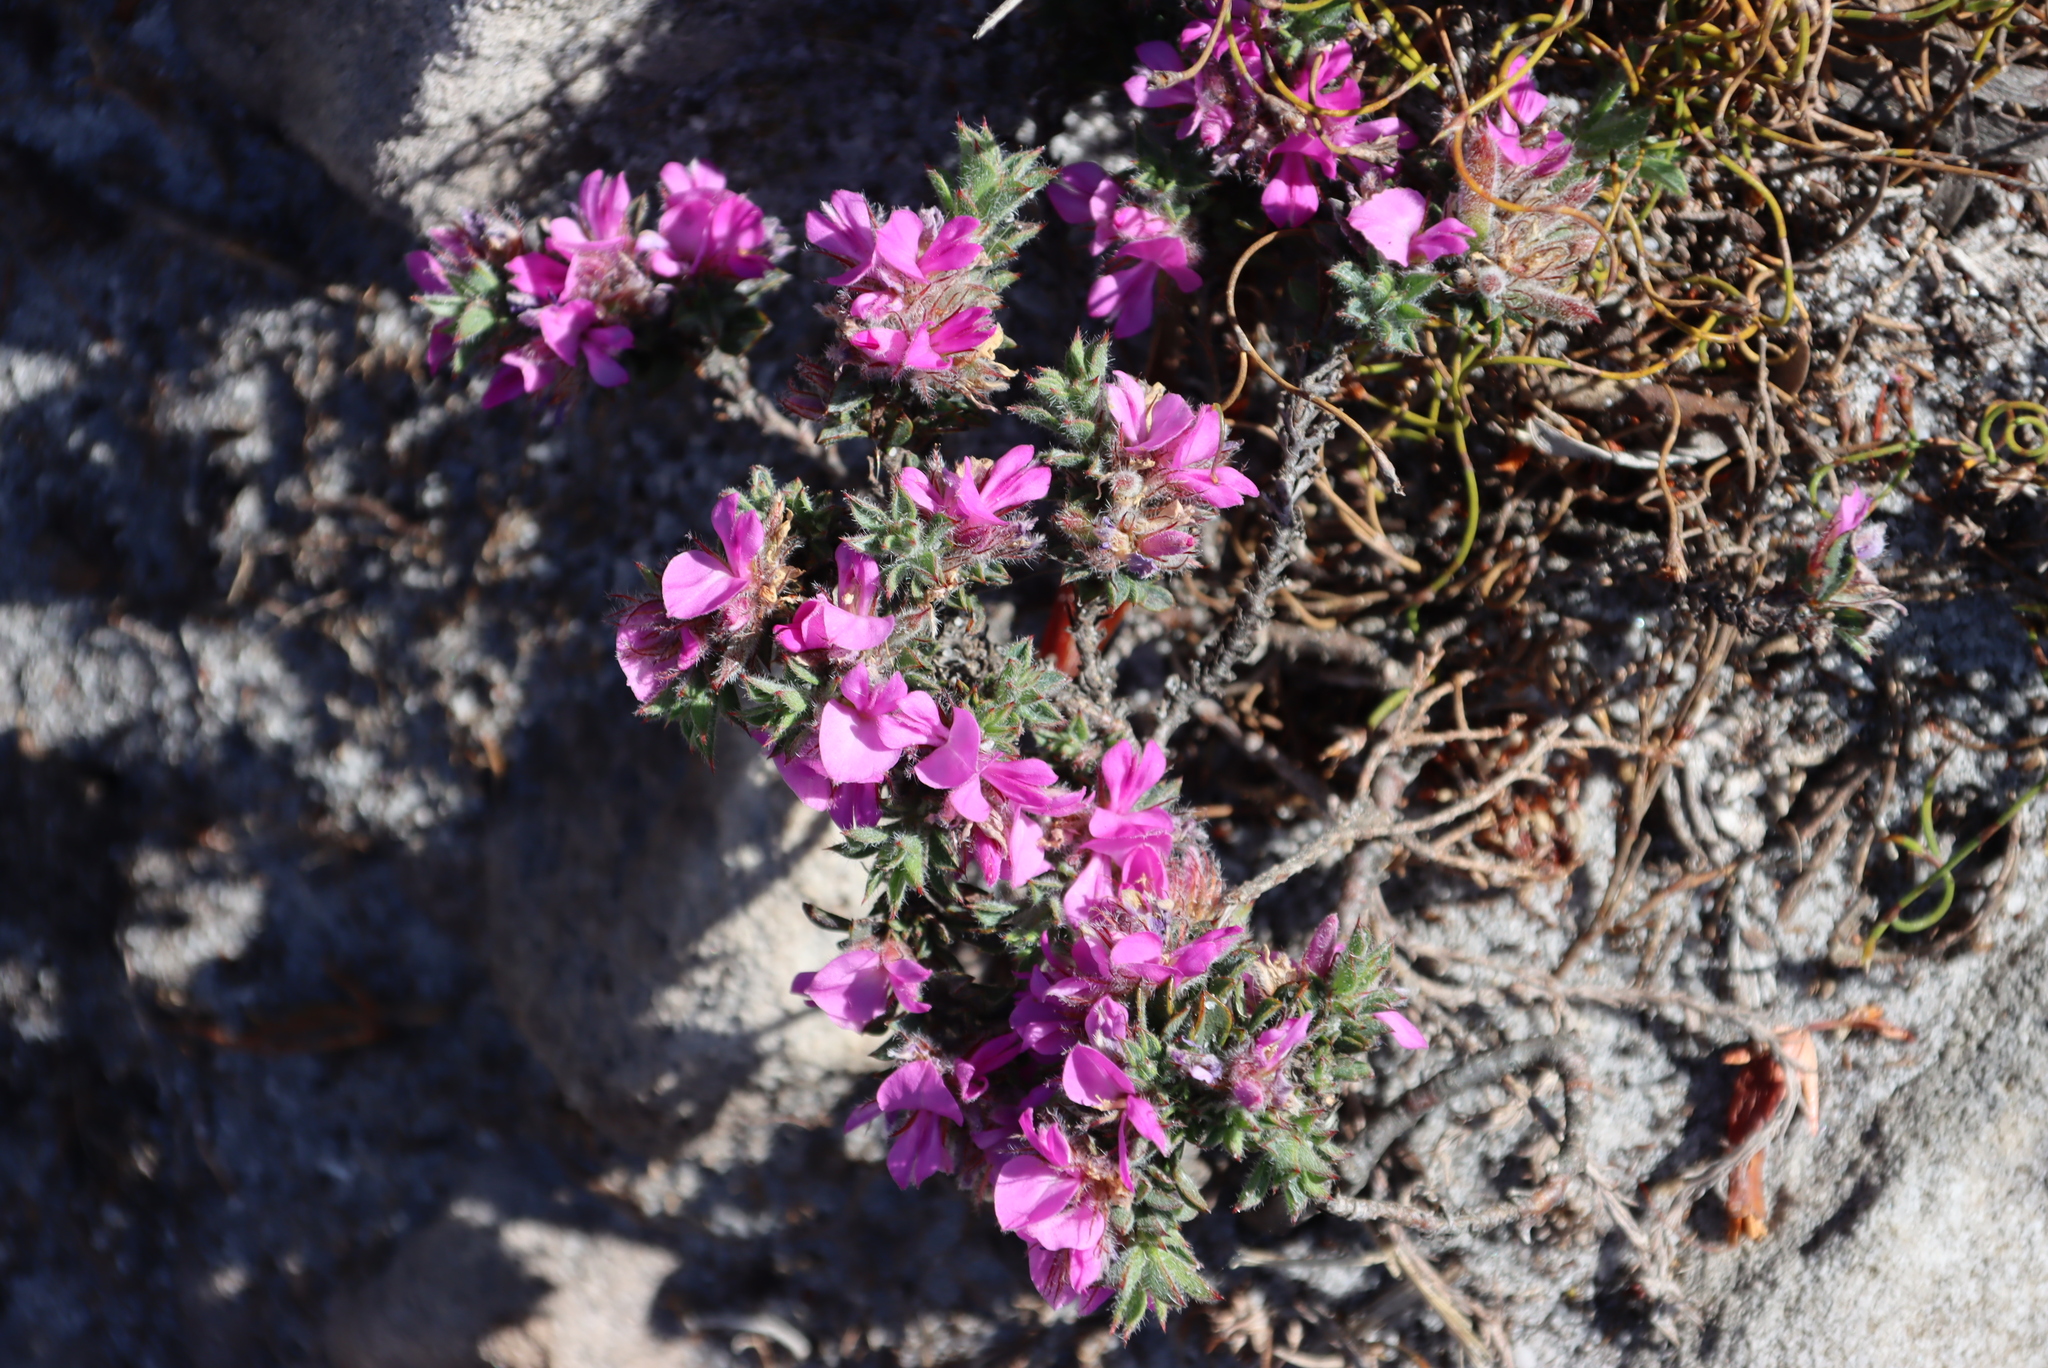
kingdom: Plantae
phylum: Tracheophyta
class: Magnoliopsida
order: Fabales
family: Fabaceae
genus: Indigofera
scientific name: Indigofera glomerata
